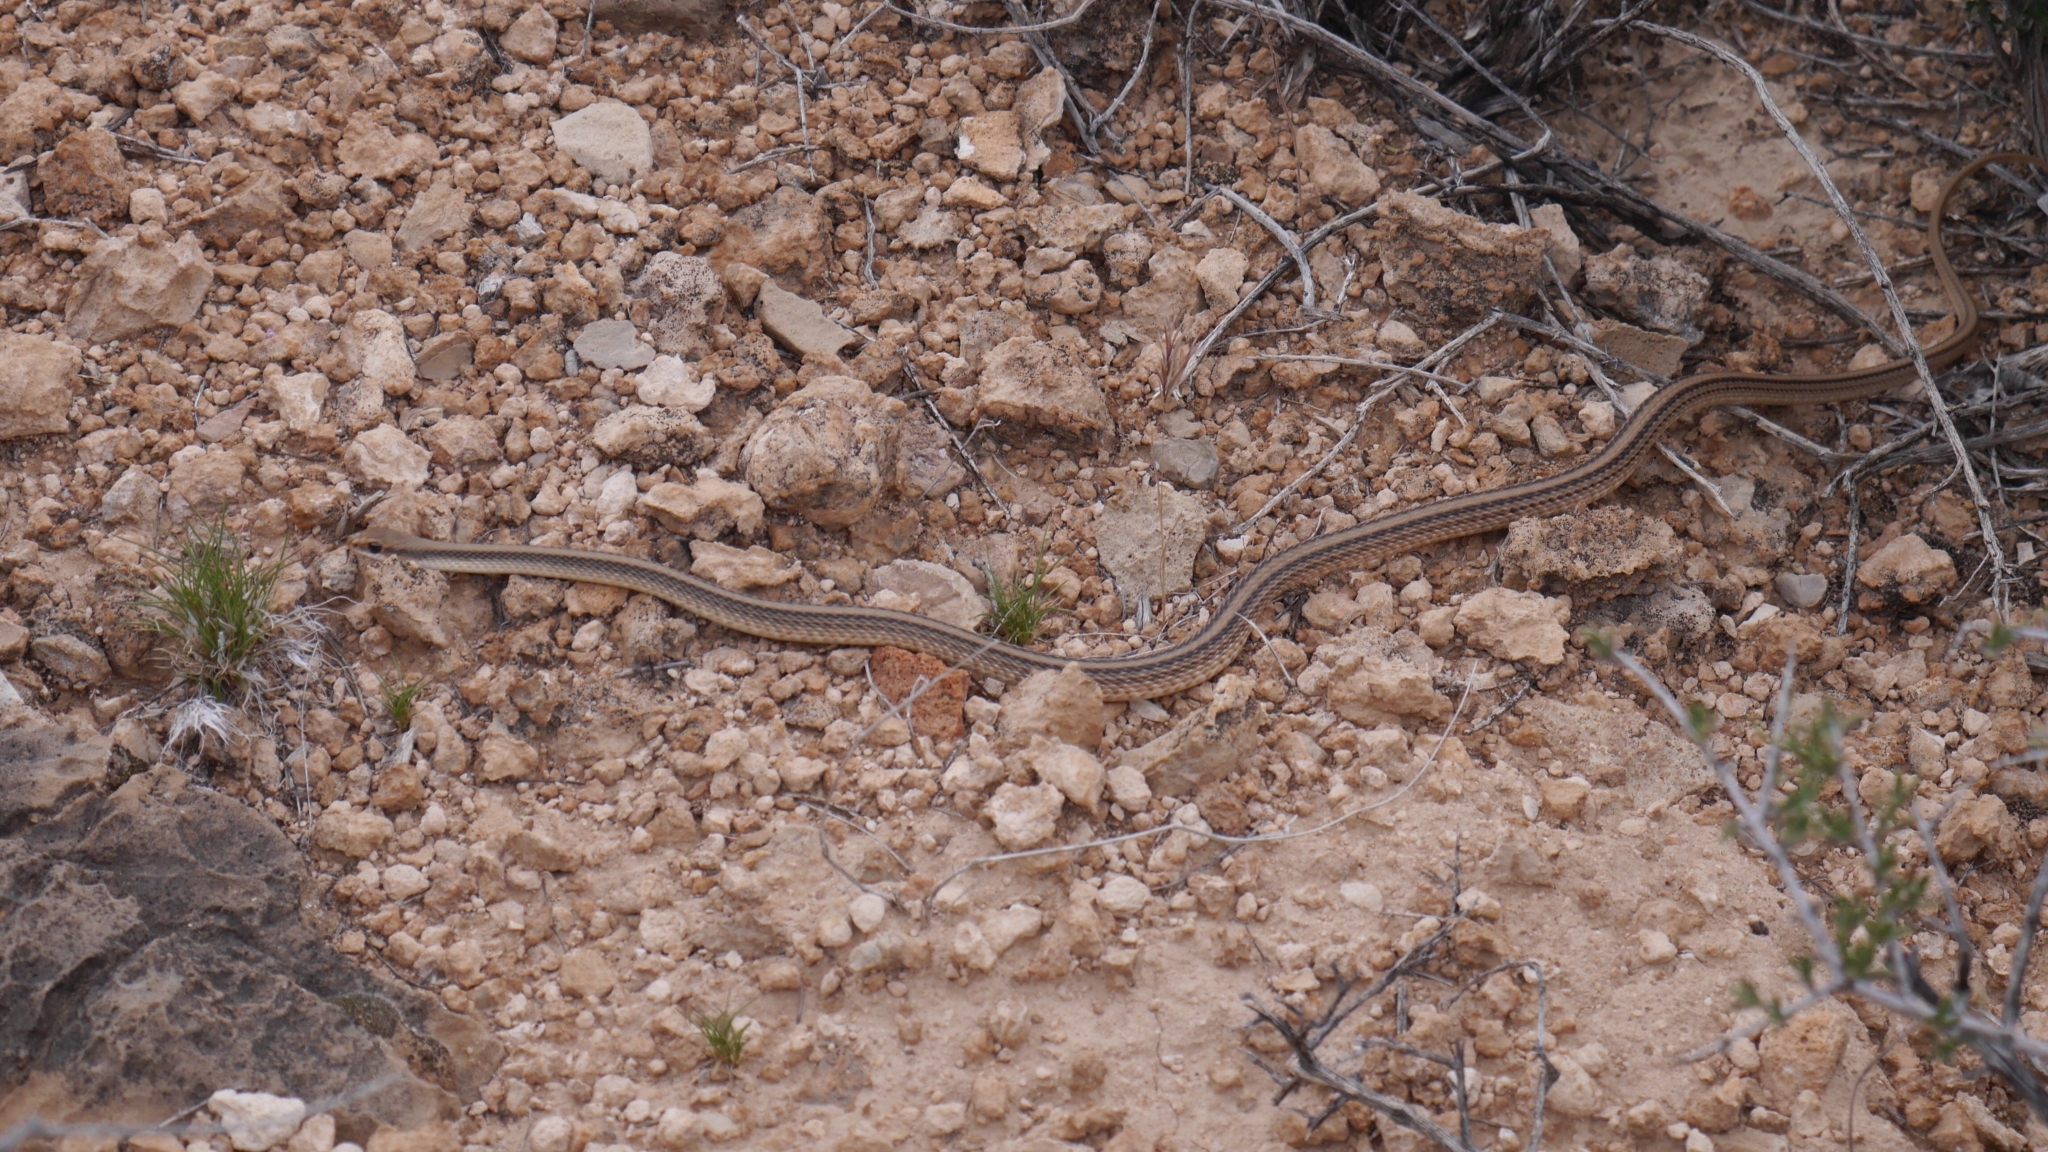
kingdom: Animalia
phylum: Chordata
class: Squamata
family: Colubridae
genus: Salvadora
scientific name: Salvadora hexalepis
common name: Western patchnose snake
